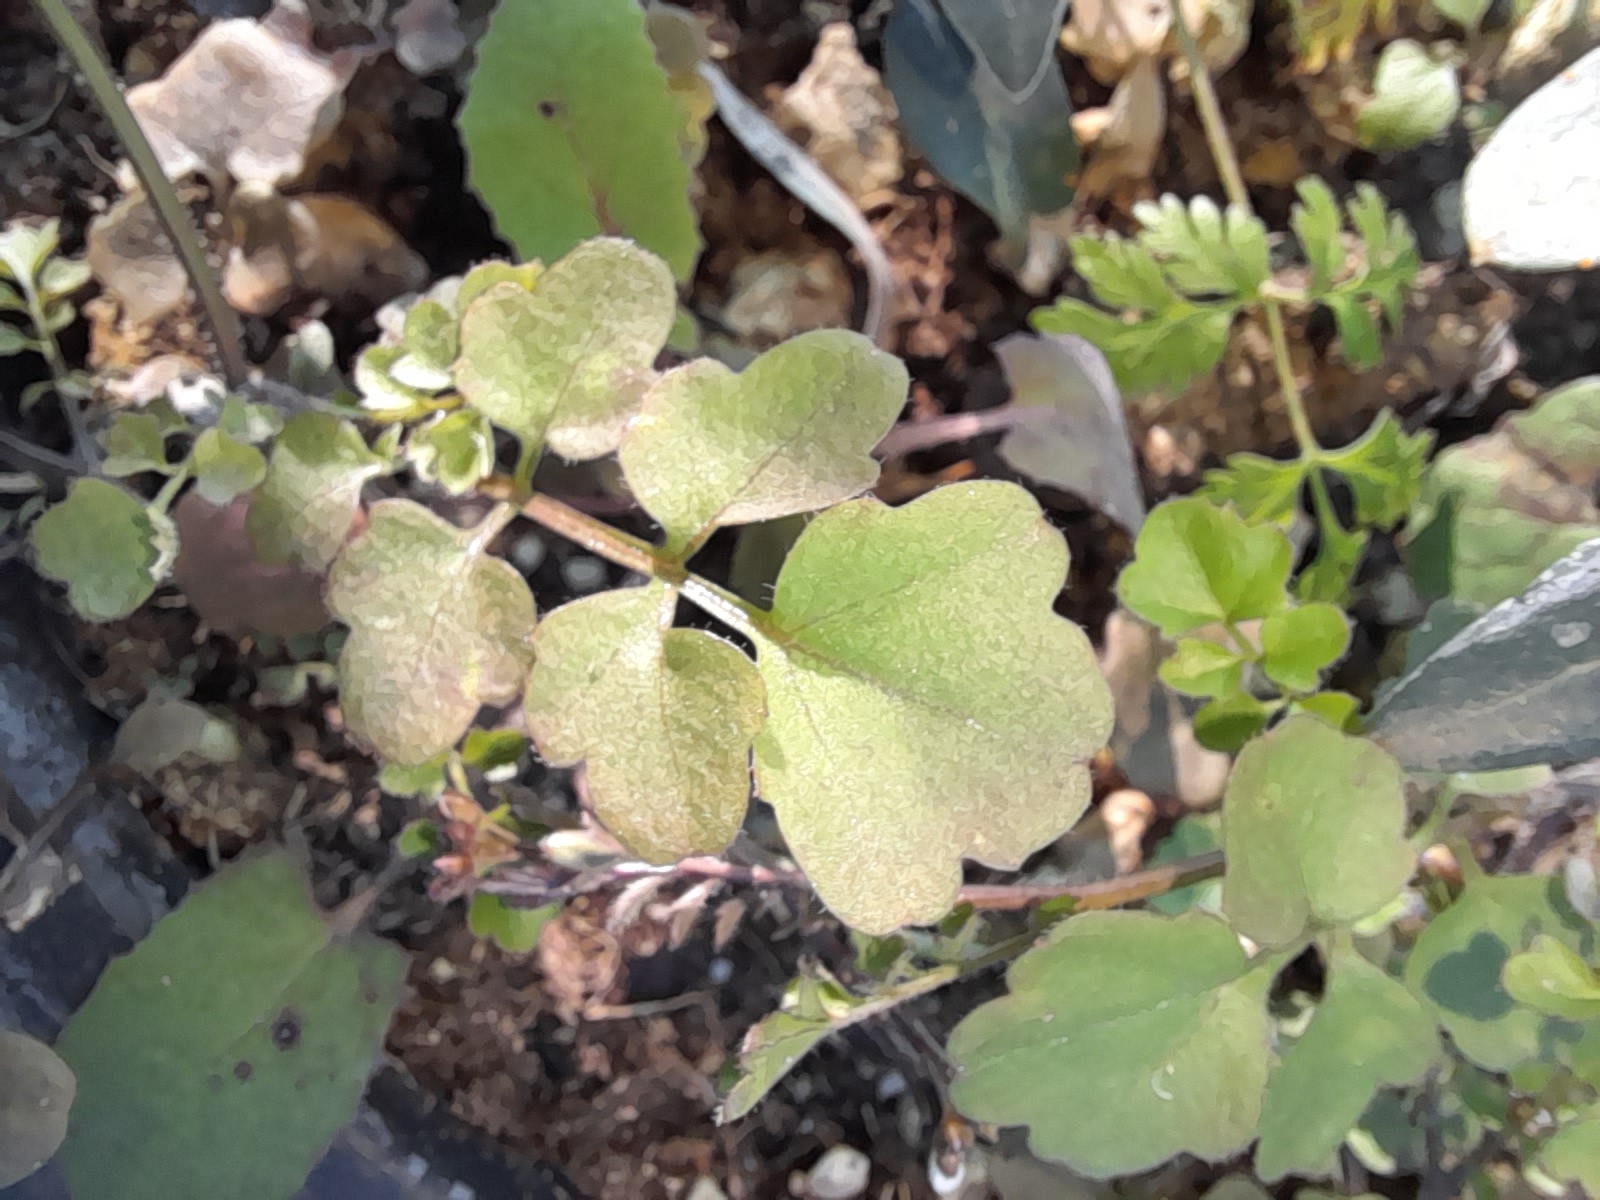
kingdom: Plantae
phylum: Tracheophyta
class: Magnoliopsida
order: Brassicales
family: Brassicaceae
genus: Cardamine
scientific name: Cardamine occulta
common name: Asian wavy bittercress
